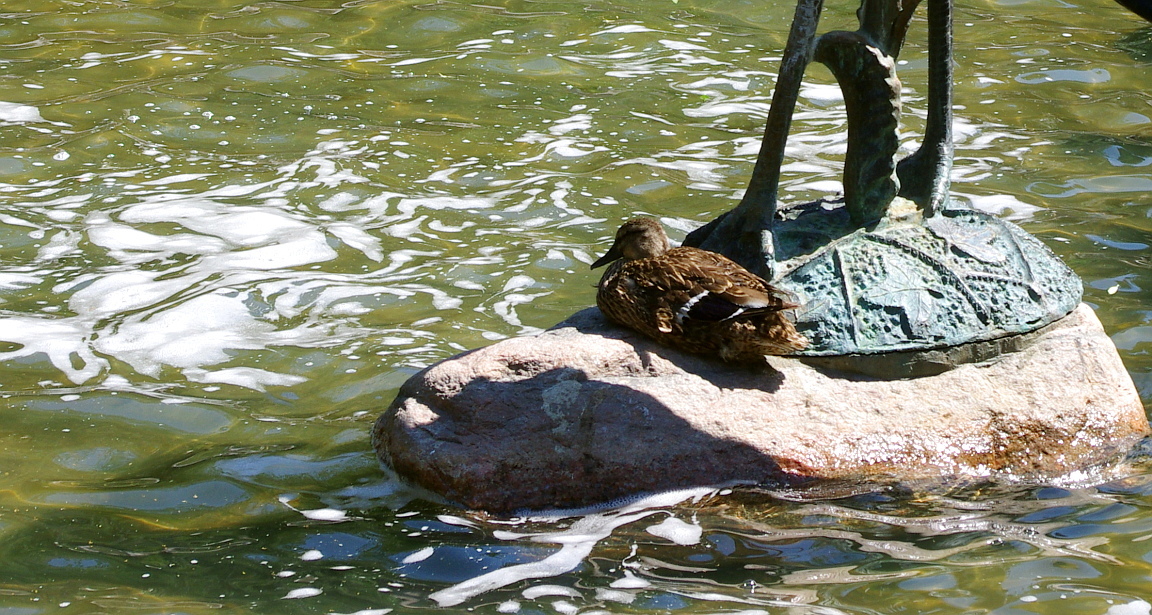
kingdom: Animalia
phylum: Chordata
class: Aves
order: Anseriformes
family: Anatidae
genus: Anas
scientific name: Anas platyrhynchos
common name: Mallard
